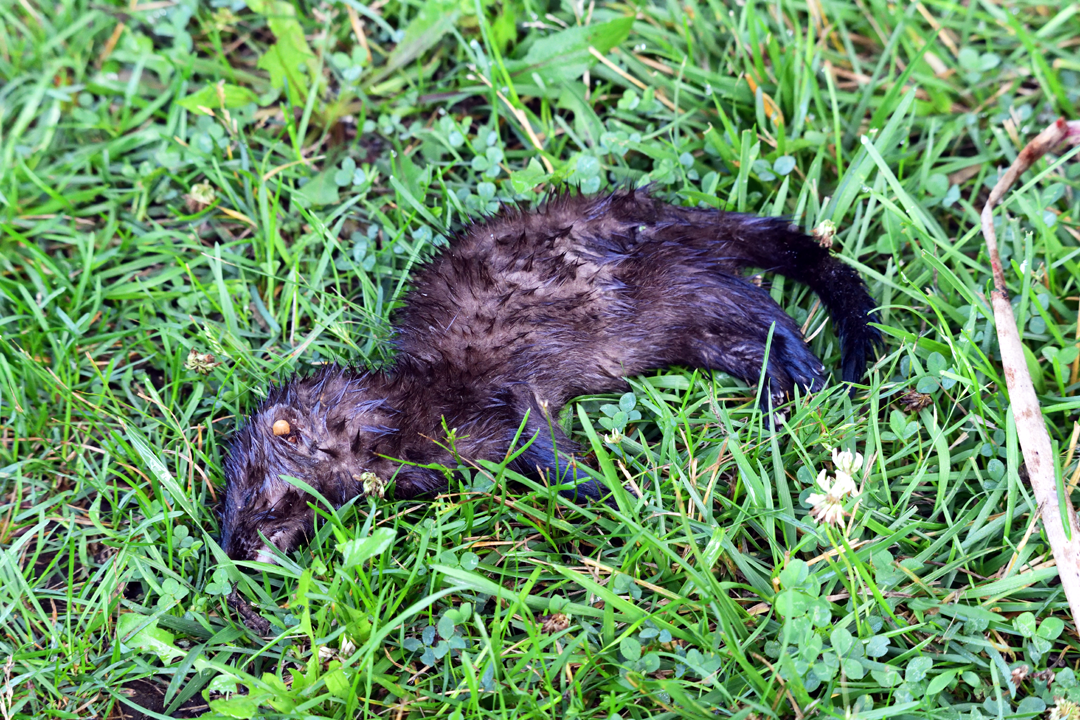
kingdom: Animalia
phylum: Chordata
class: Mammalia
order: Carnivora
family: Mustelidae
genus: Mustela
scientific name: Mustela
